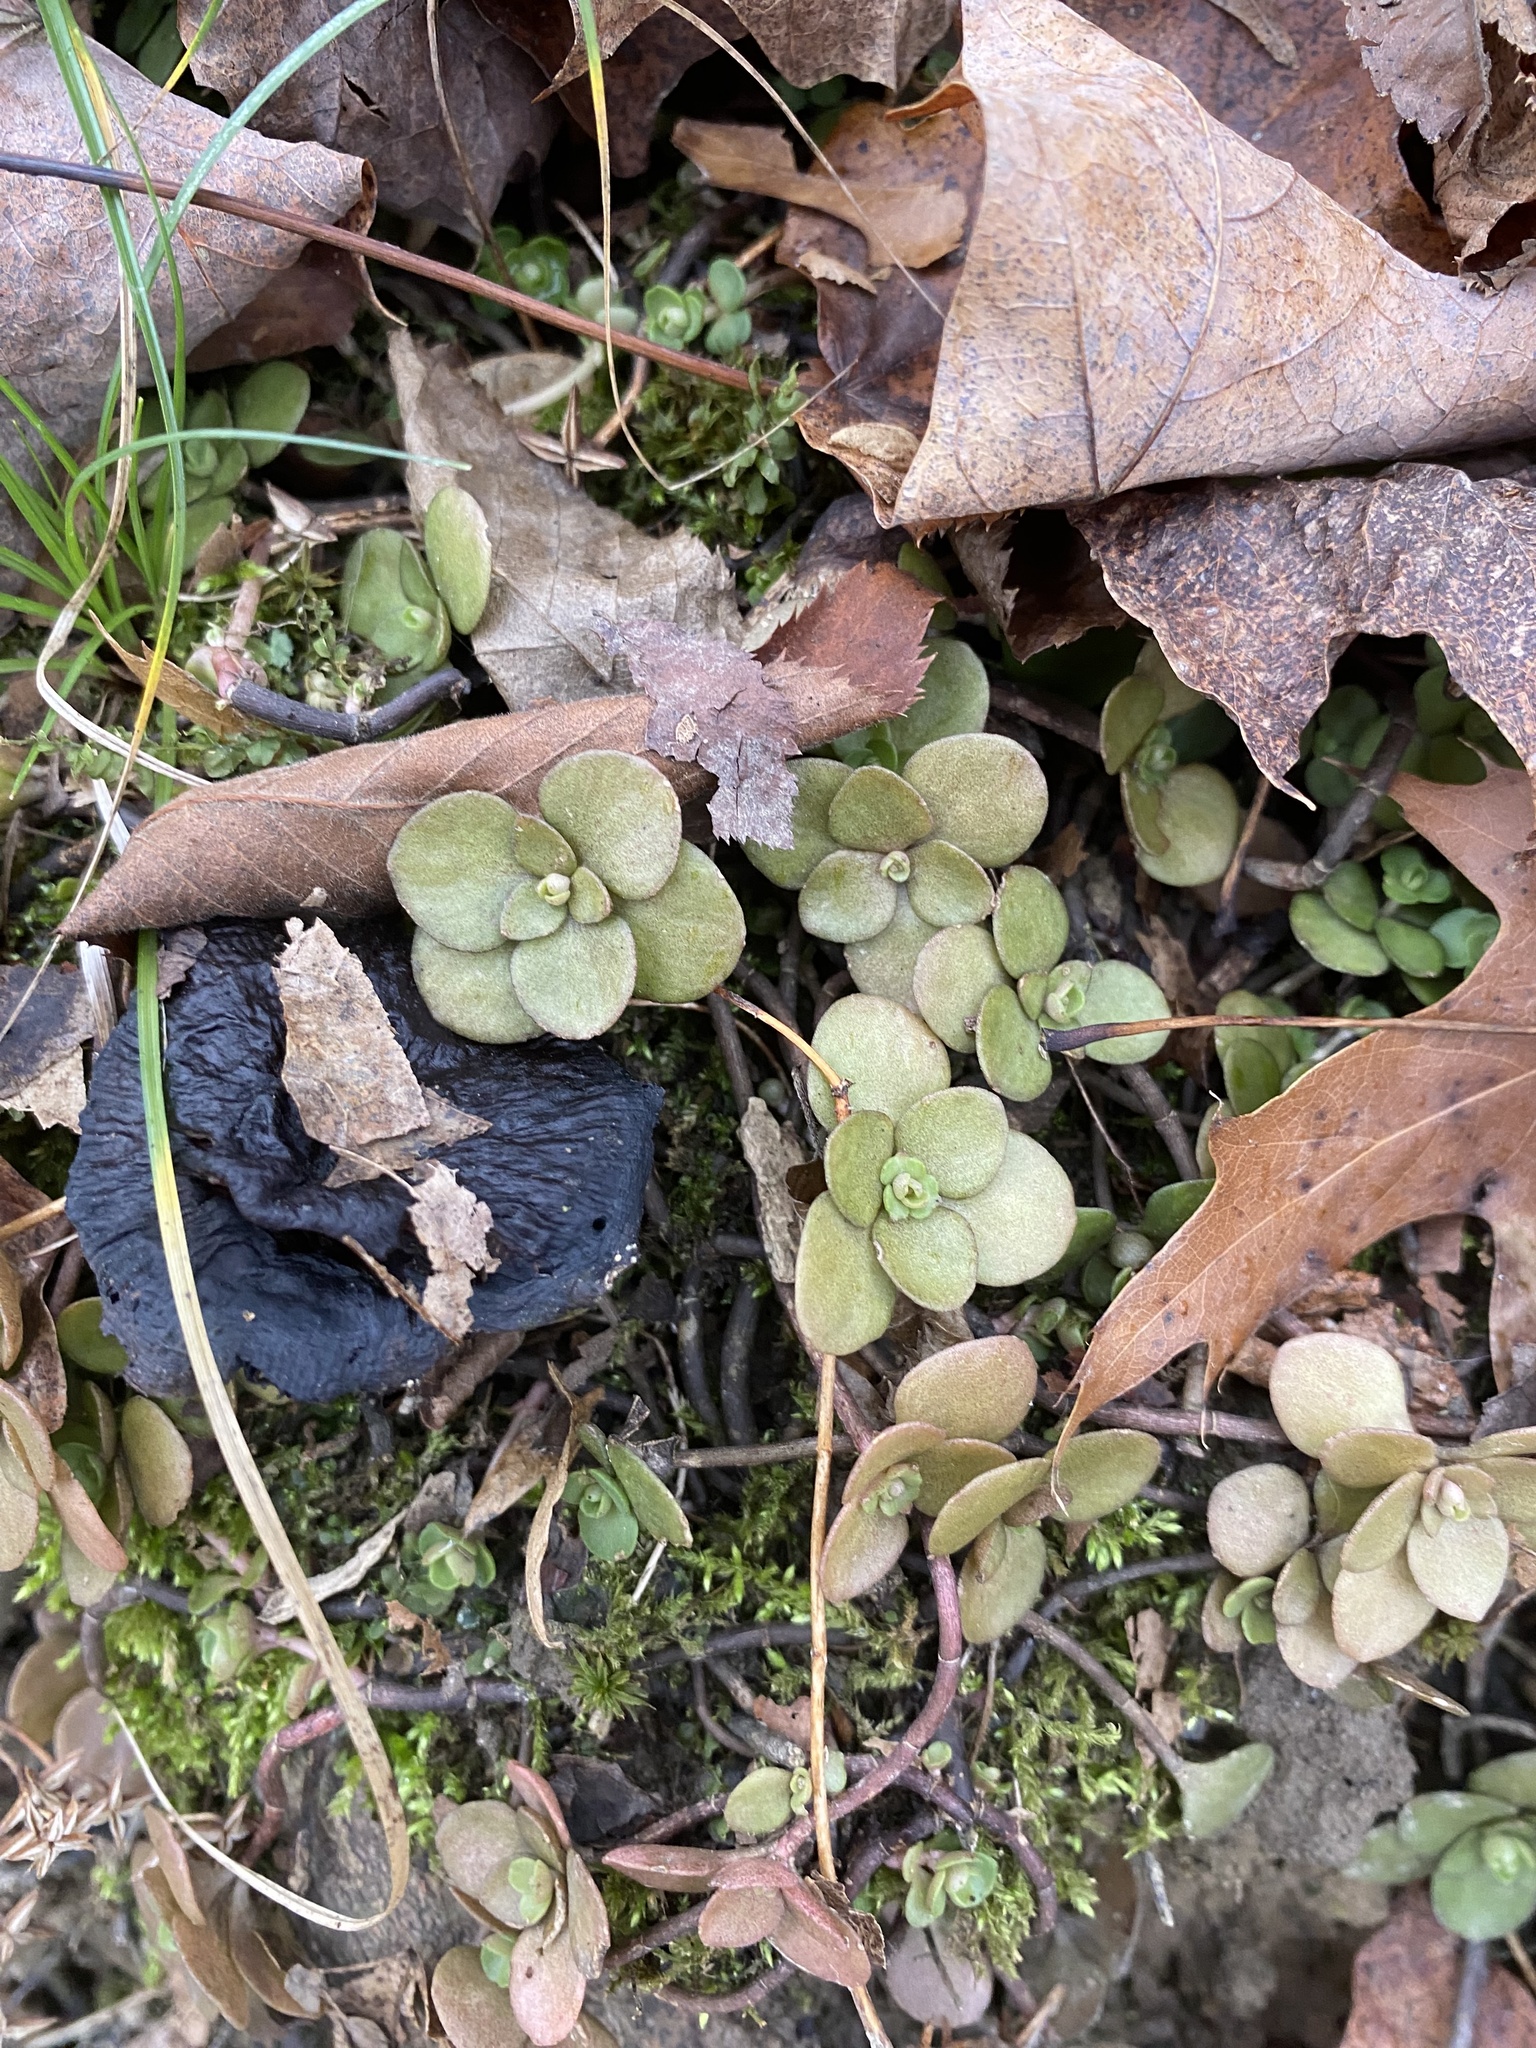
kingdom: Plantae
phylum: Tracheophyta
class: Magnoliopsida
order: Saxifragales
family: Crassulaceae
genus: Sedum
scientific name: Sedum ternatum
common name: Wild stonecrop
